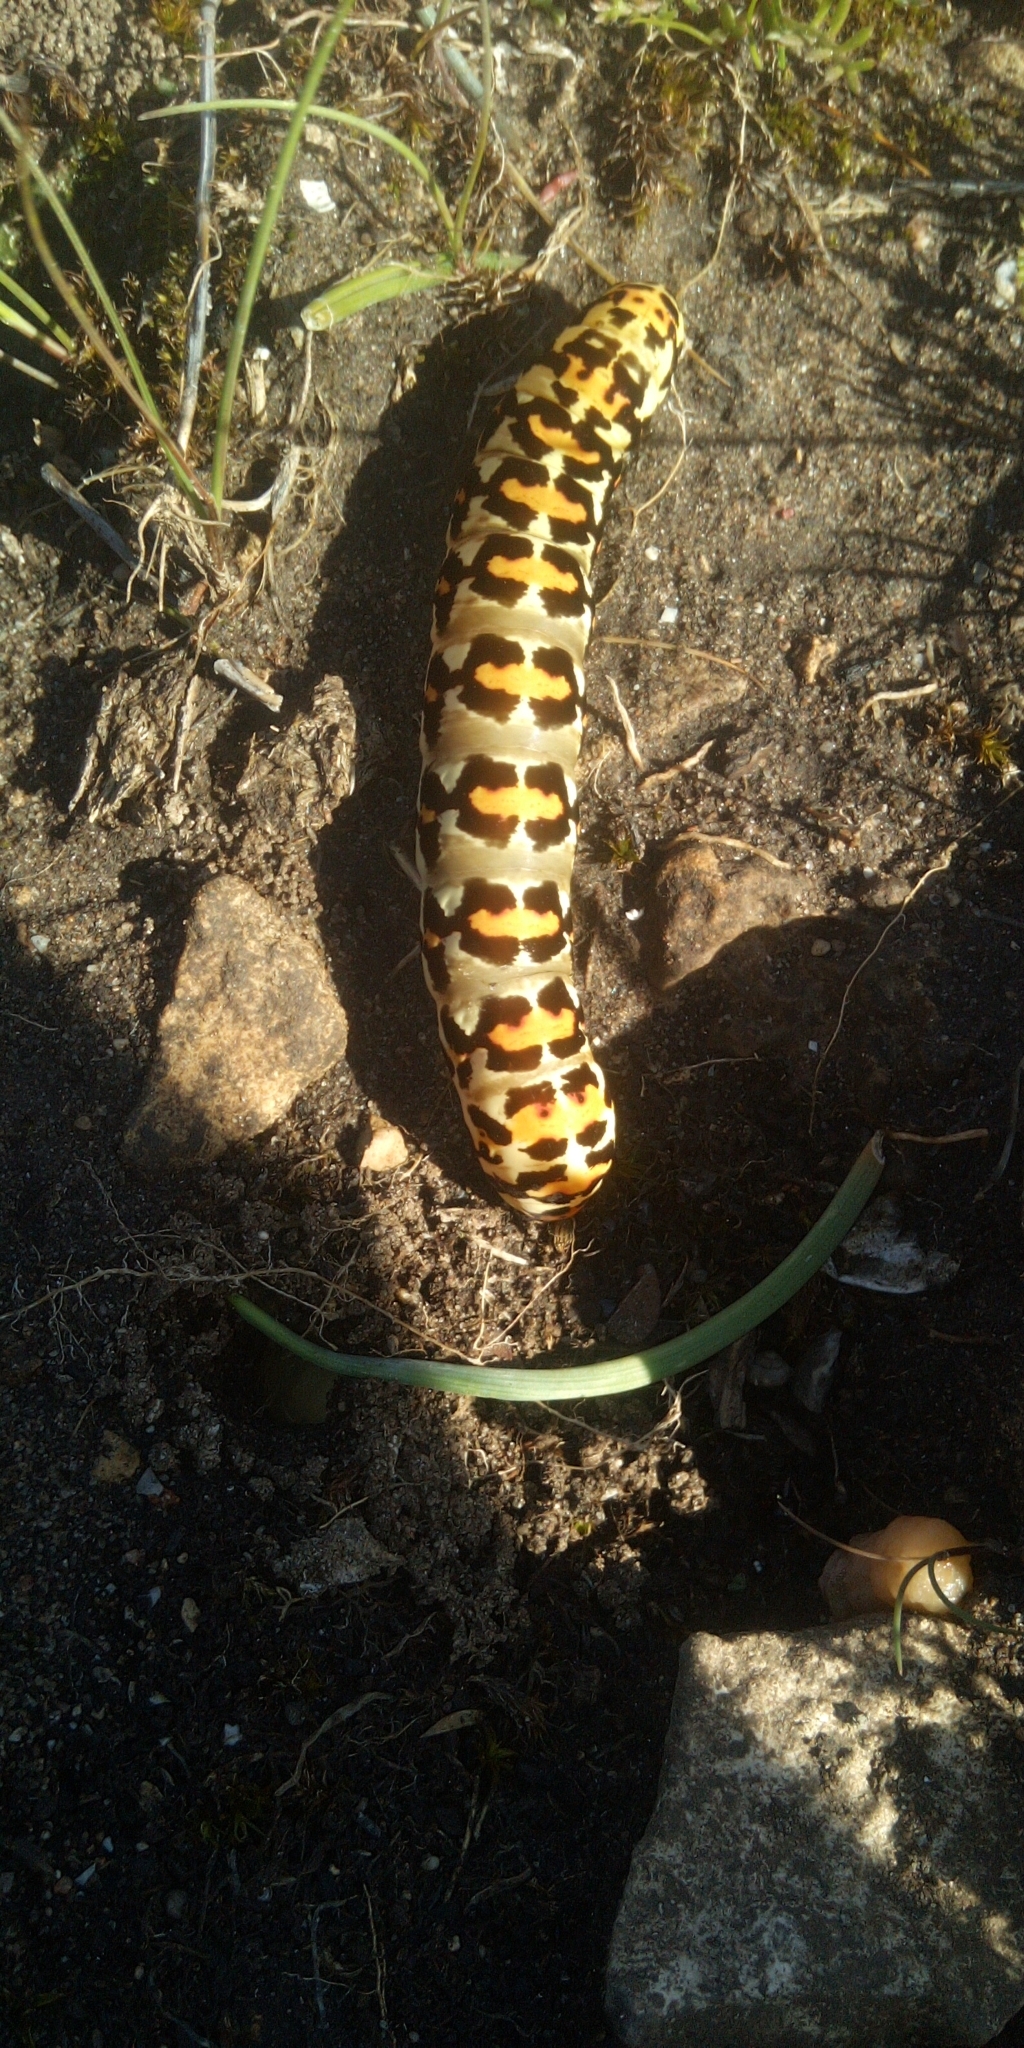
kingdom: Animalia
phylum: Arthropoda
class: Insecta
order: Lepidoptera
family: Noctuidae
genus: Diaphone
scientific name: Diaphone eumela
